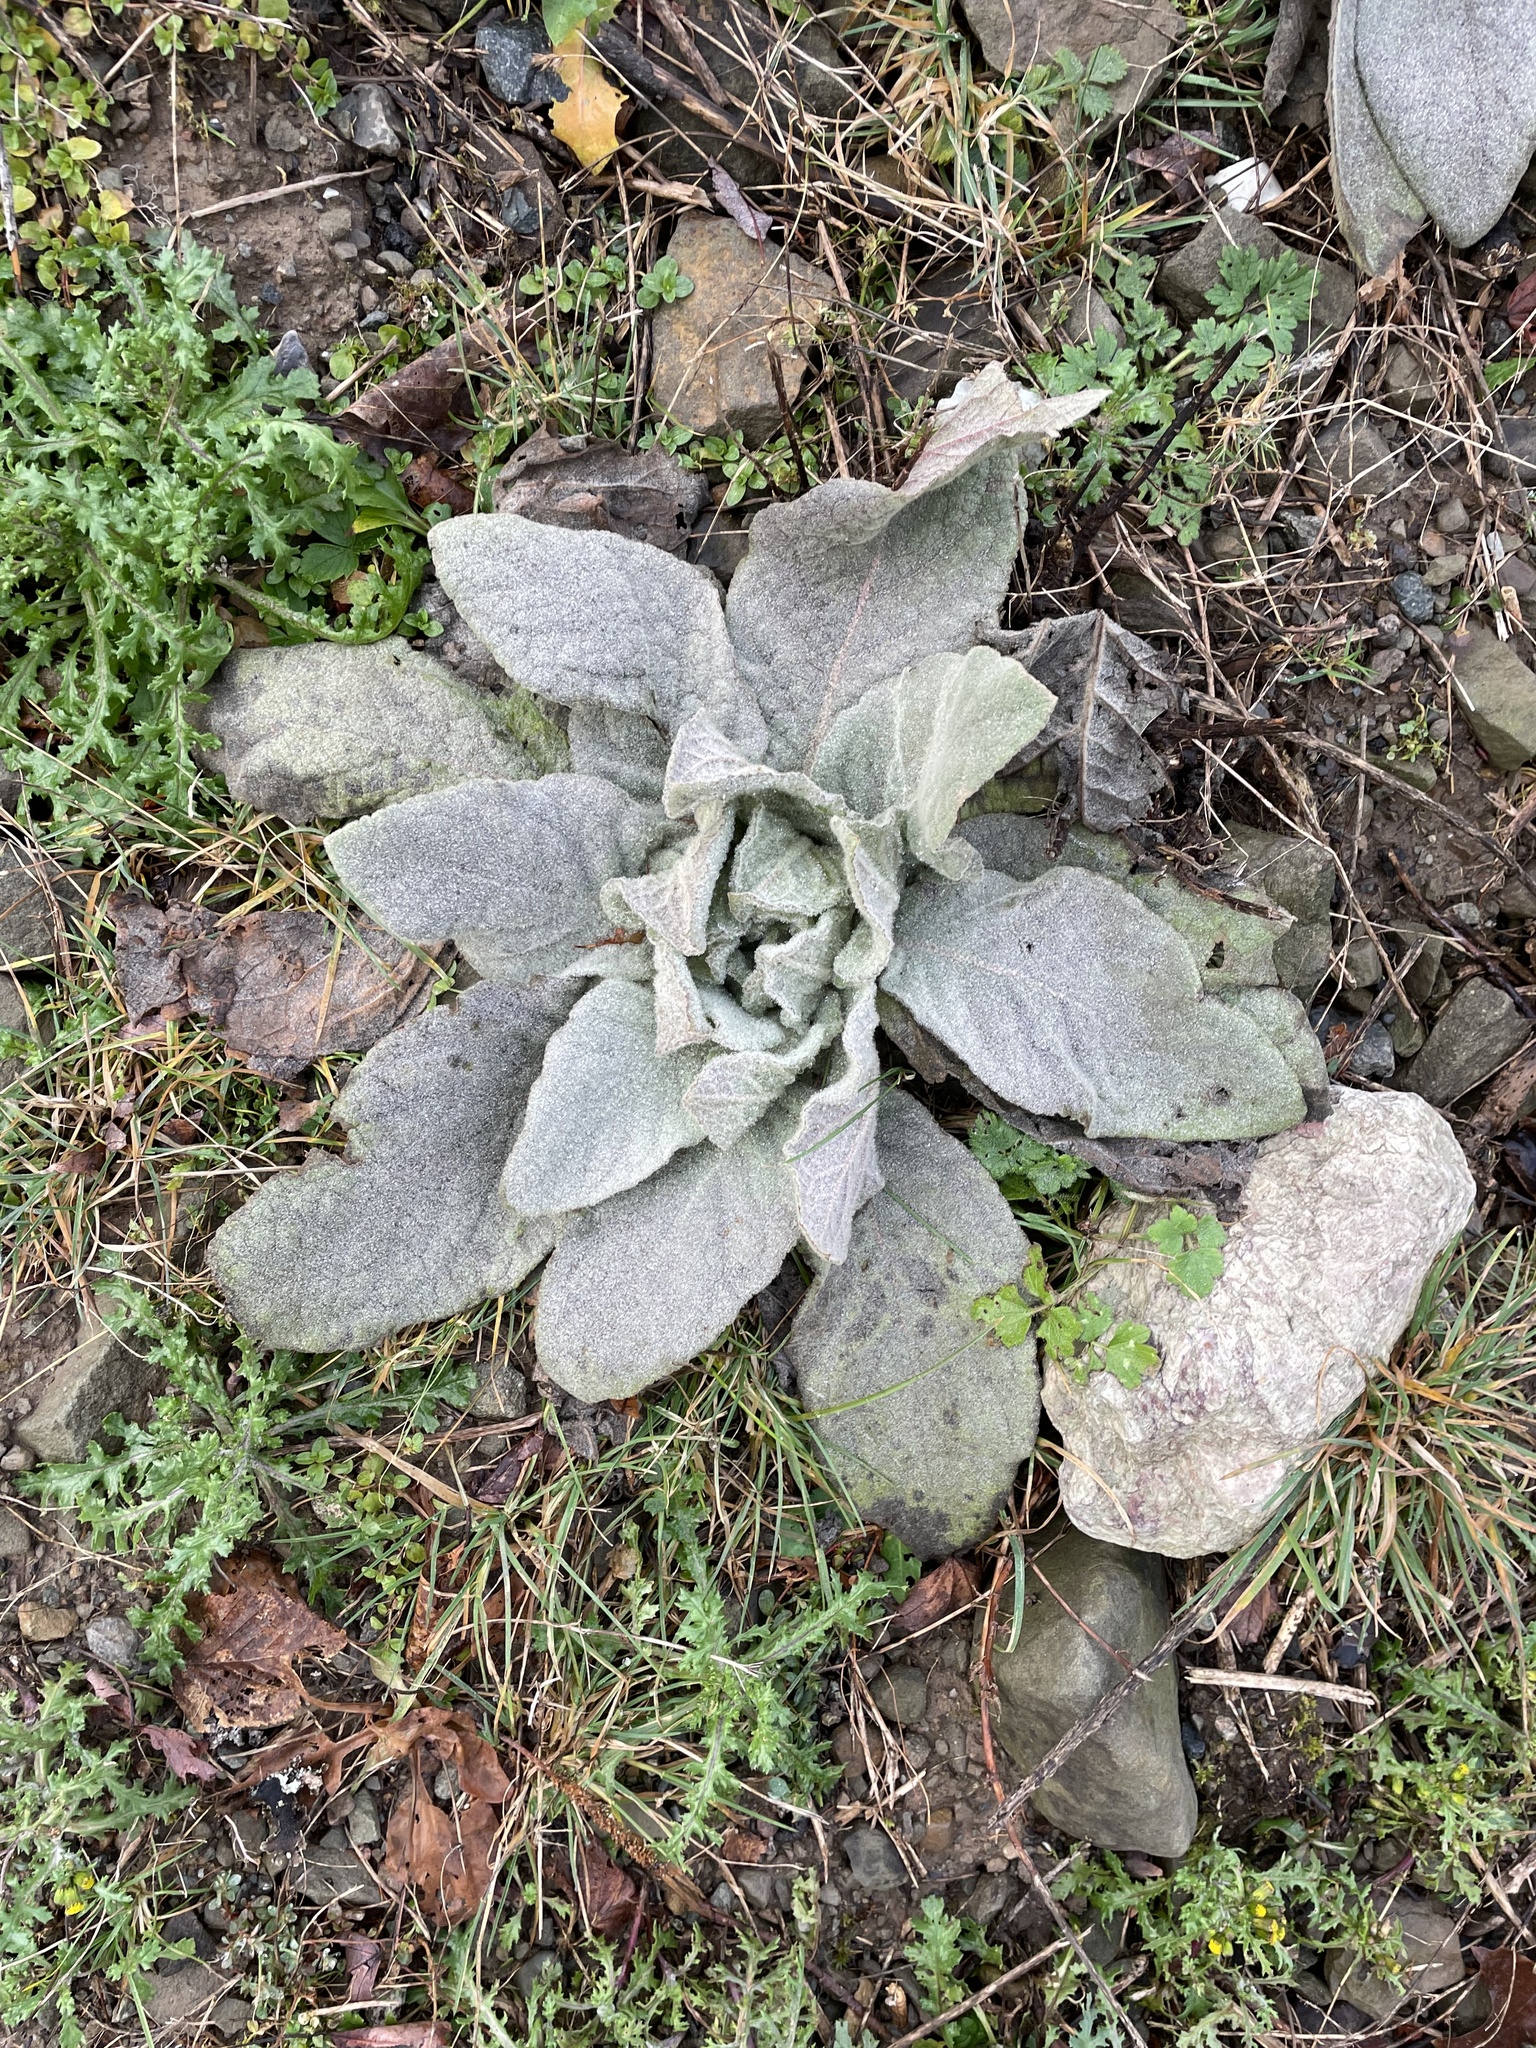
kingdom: Plantae
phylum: Tracheophyta
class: Magnoliopsida
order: Lamiales
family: Scrophulariaceae
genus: Verbascum
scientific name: Verbascum thapsus
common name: Common mullein
